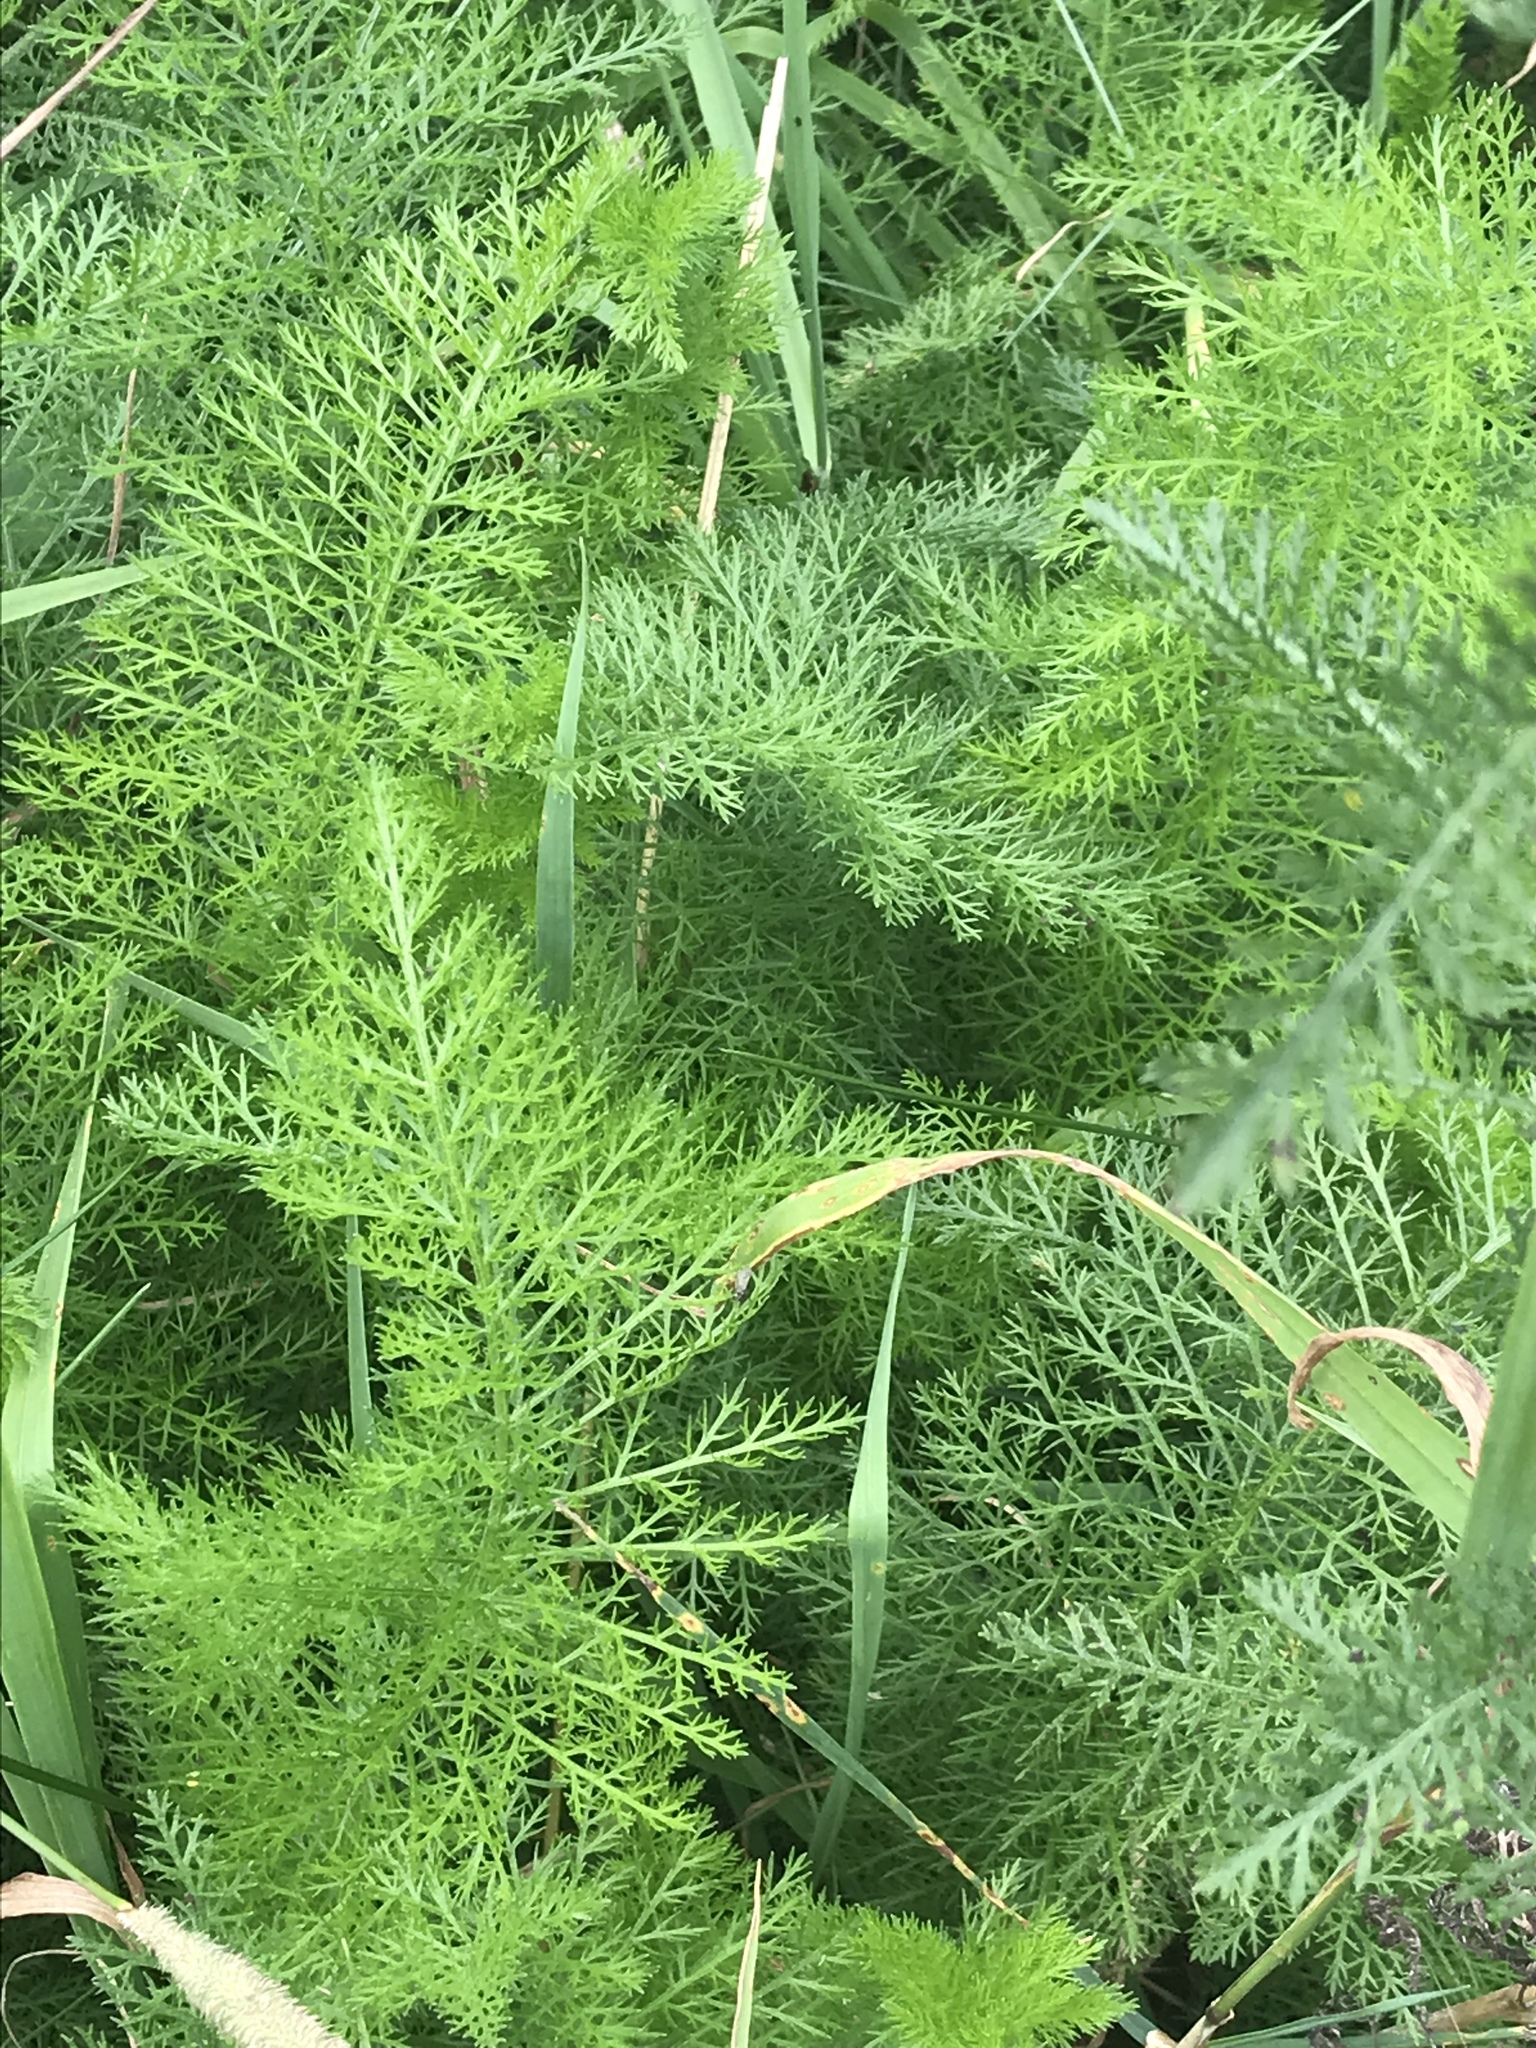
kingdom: Plantae
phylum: Tracheophyta
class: Magnoliopsida
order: Asterales
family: Asteraceae
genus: Achillea
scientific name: Achillea millefolium
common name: Yarrow
